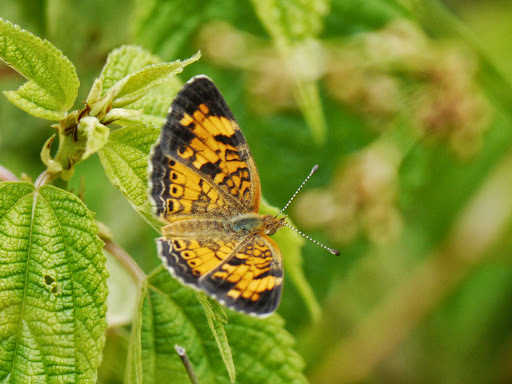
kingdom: Animalia
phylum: Arthropoda
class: Insecta
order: Lepidoptera
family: Nymphalidae
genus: Phyciodes
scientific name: Phyciodes tharos
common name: Pearl crescent
